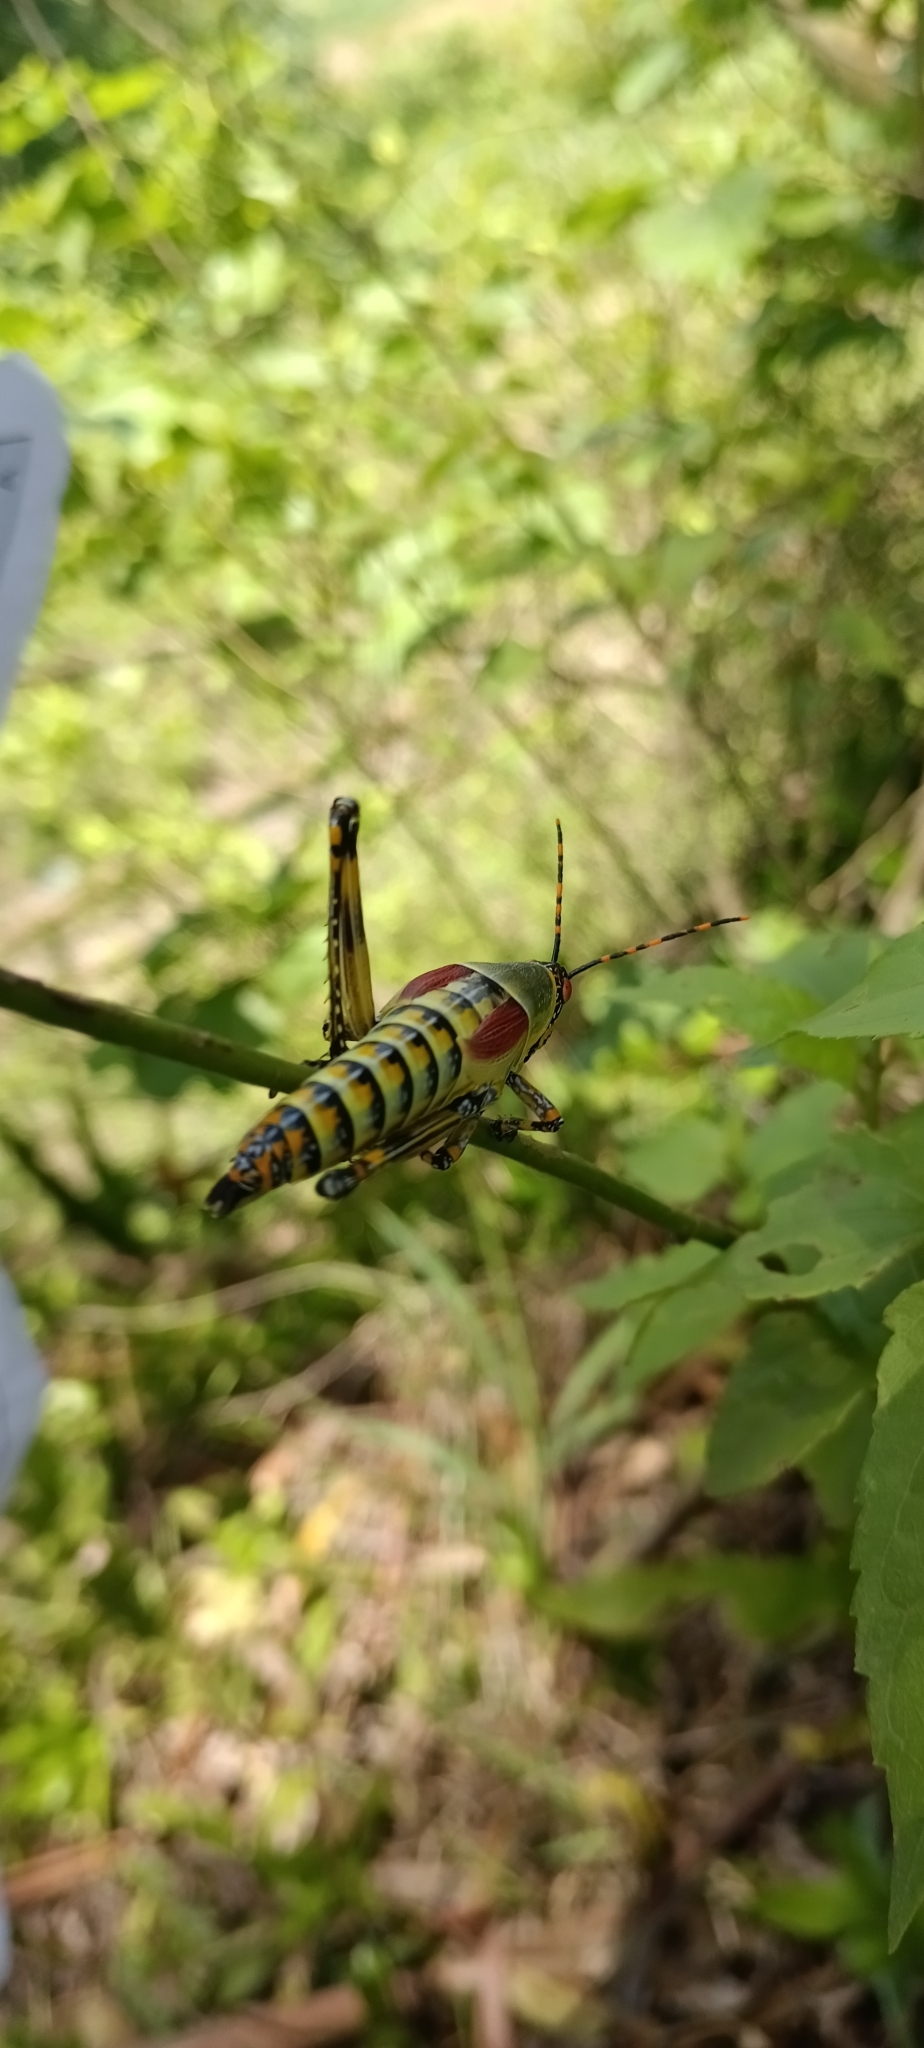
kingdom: Animalia
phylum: Arthropoda
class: Insecta
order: Orthoptera
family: Pyrgomorphidae
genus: Zonocerus
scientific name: Zonocerus elegans
